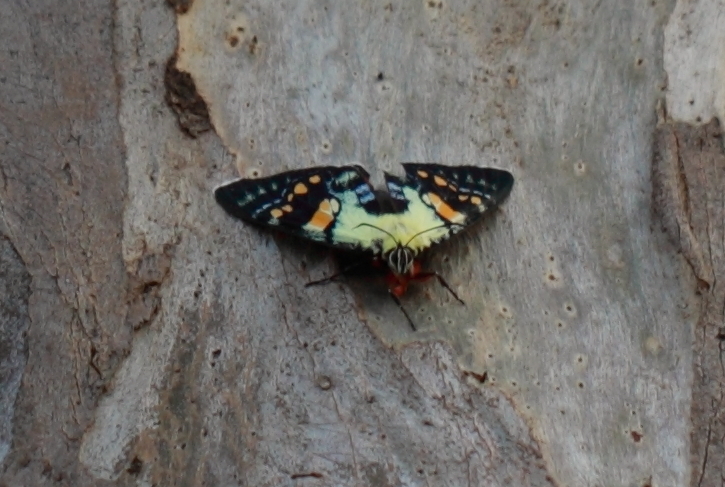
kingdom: Animalia
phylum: Arthropoda
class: Insecta
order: Lepidoptera
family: Noctuidae
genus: Agarista
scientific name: Agarista agricola
